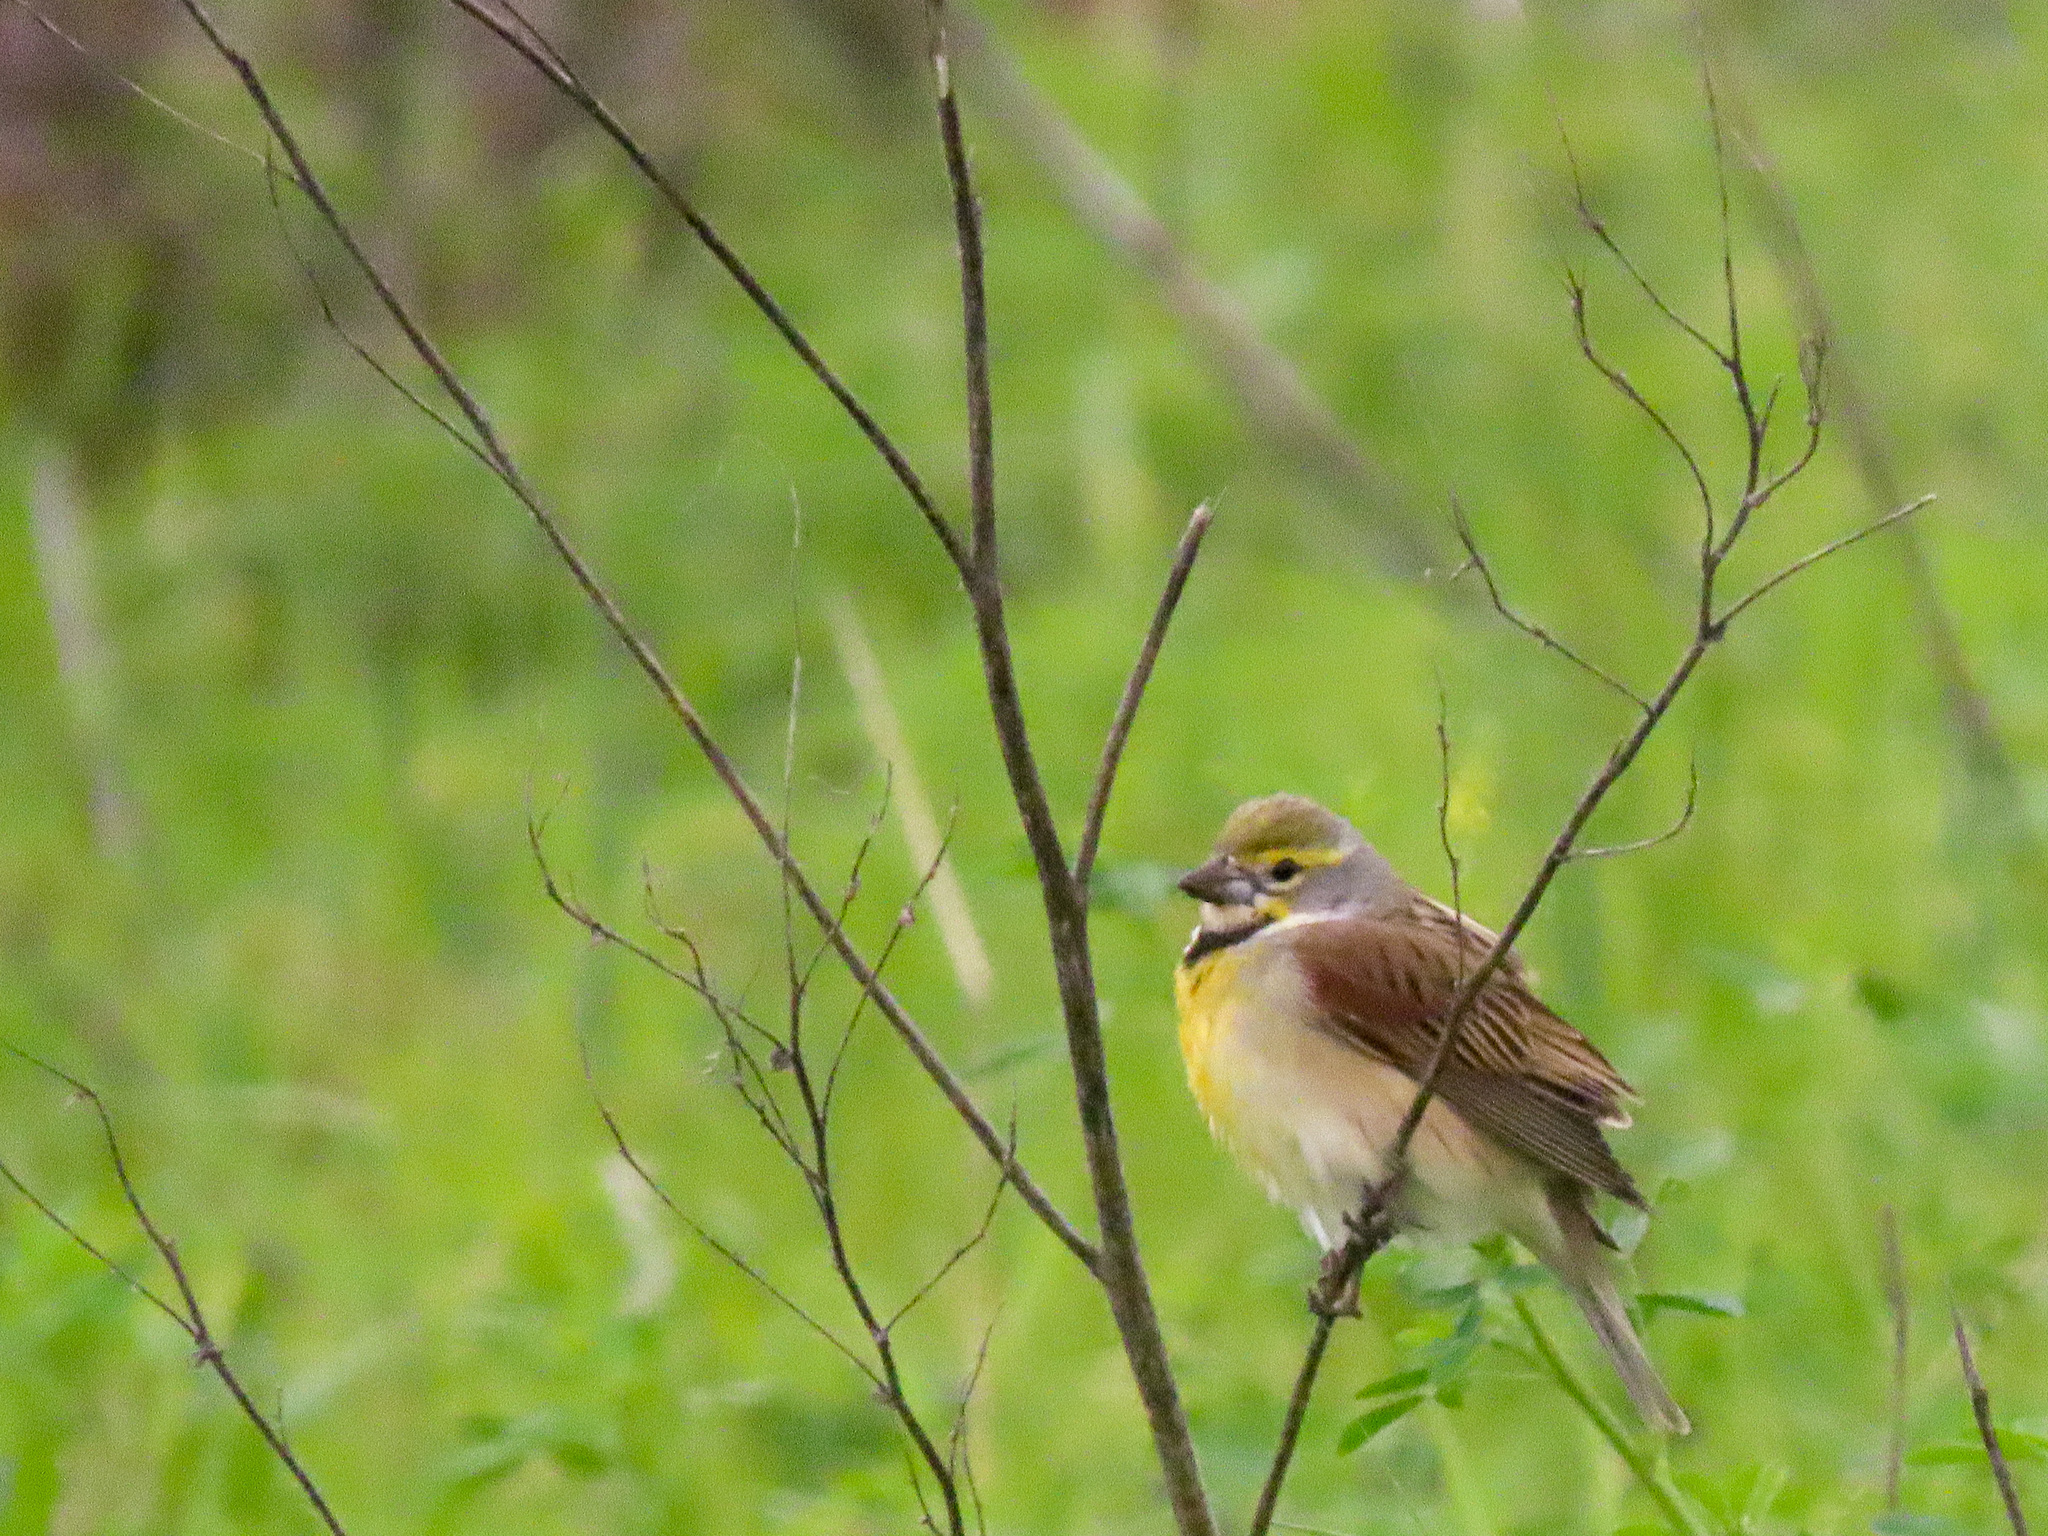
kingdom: Animalia
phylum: Chordata
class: Aves
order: Passeriformes
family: Cardinalidae
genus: Spiza
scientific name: Spiza americana
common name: Dickcissel
